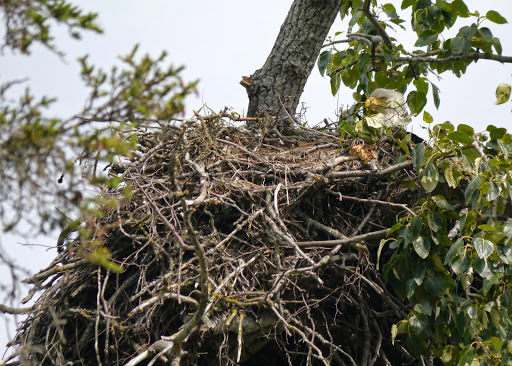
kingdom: Animalia
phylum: Chordata
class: Aves
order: Accipitriformes
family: Accipitridae
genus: Haliaeetus
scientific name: Haliaeetus leucocephalus
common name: Bald eagle
